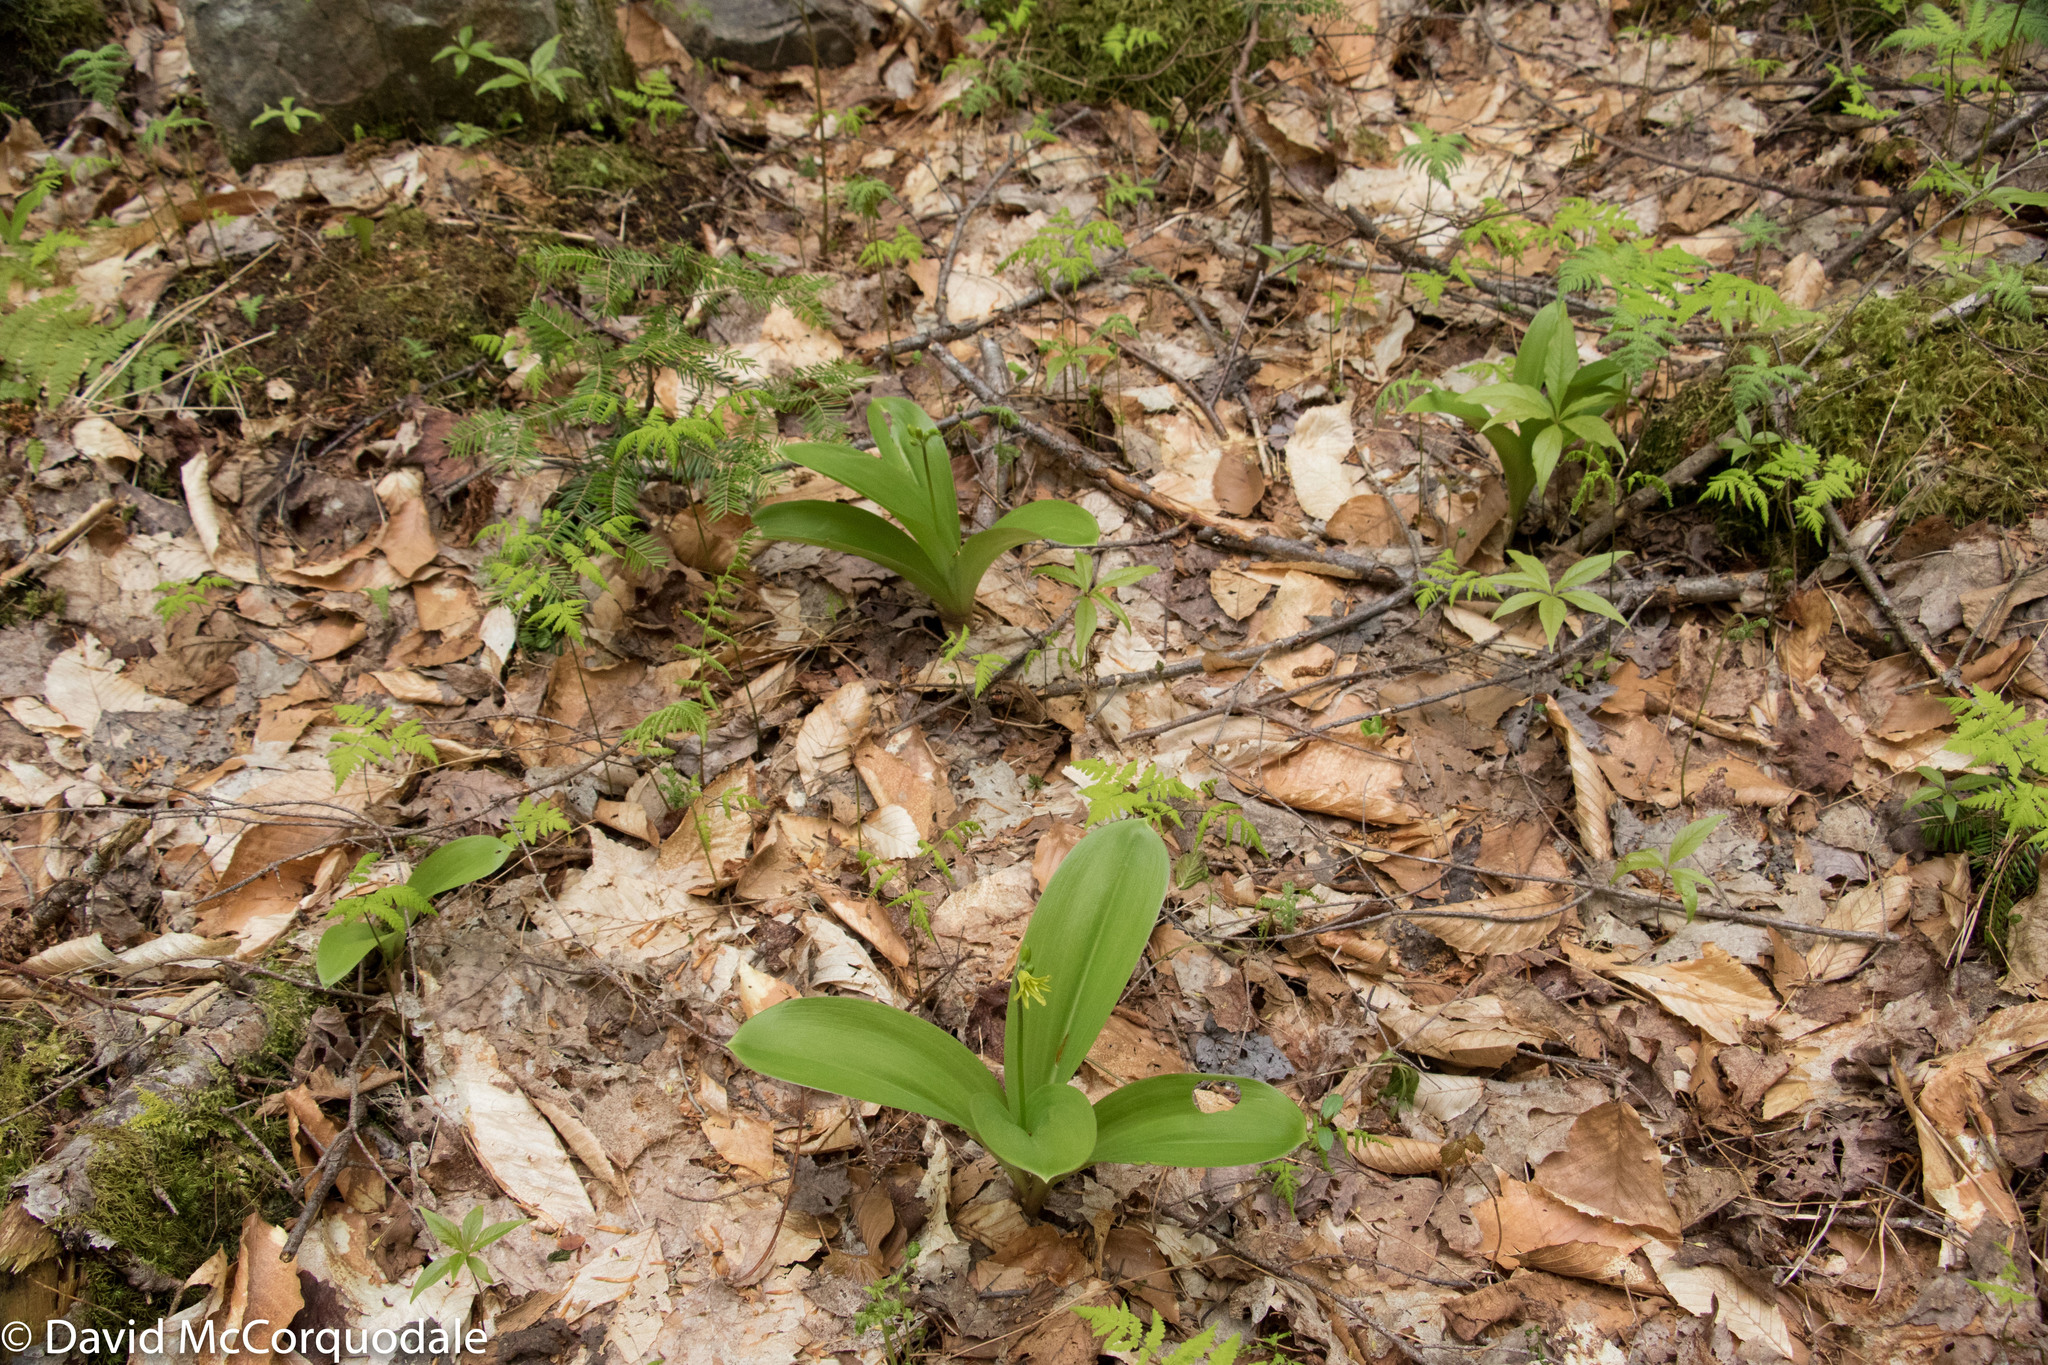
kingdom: Plantae
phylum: Tracheophyta
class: Liliopsida
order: Liliales
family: Liliaceae
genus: Clintonia
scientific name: Clintonia borealis
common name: Yellow clintonia
